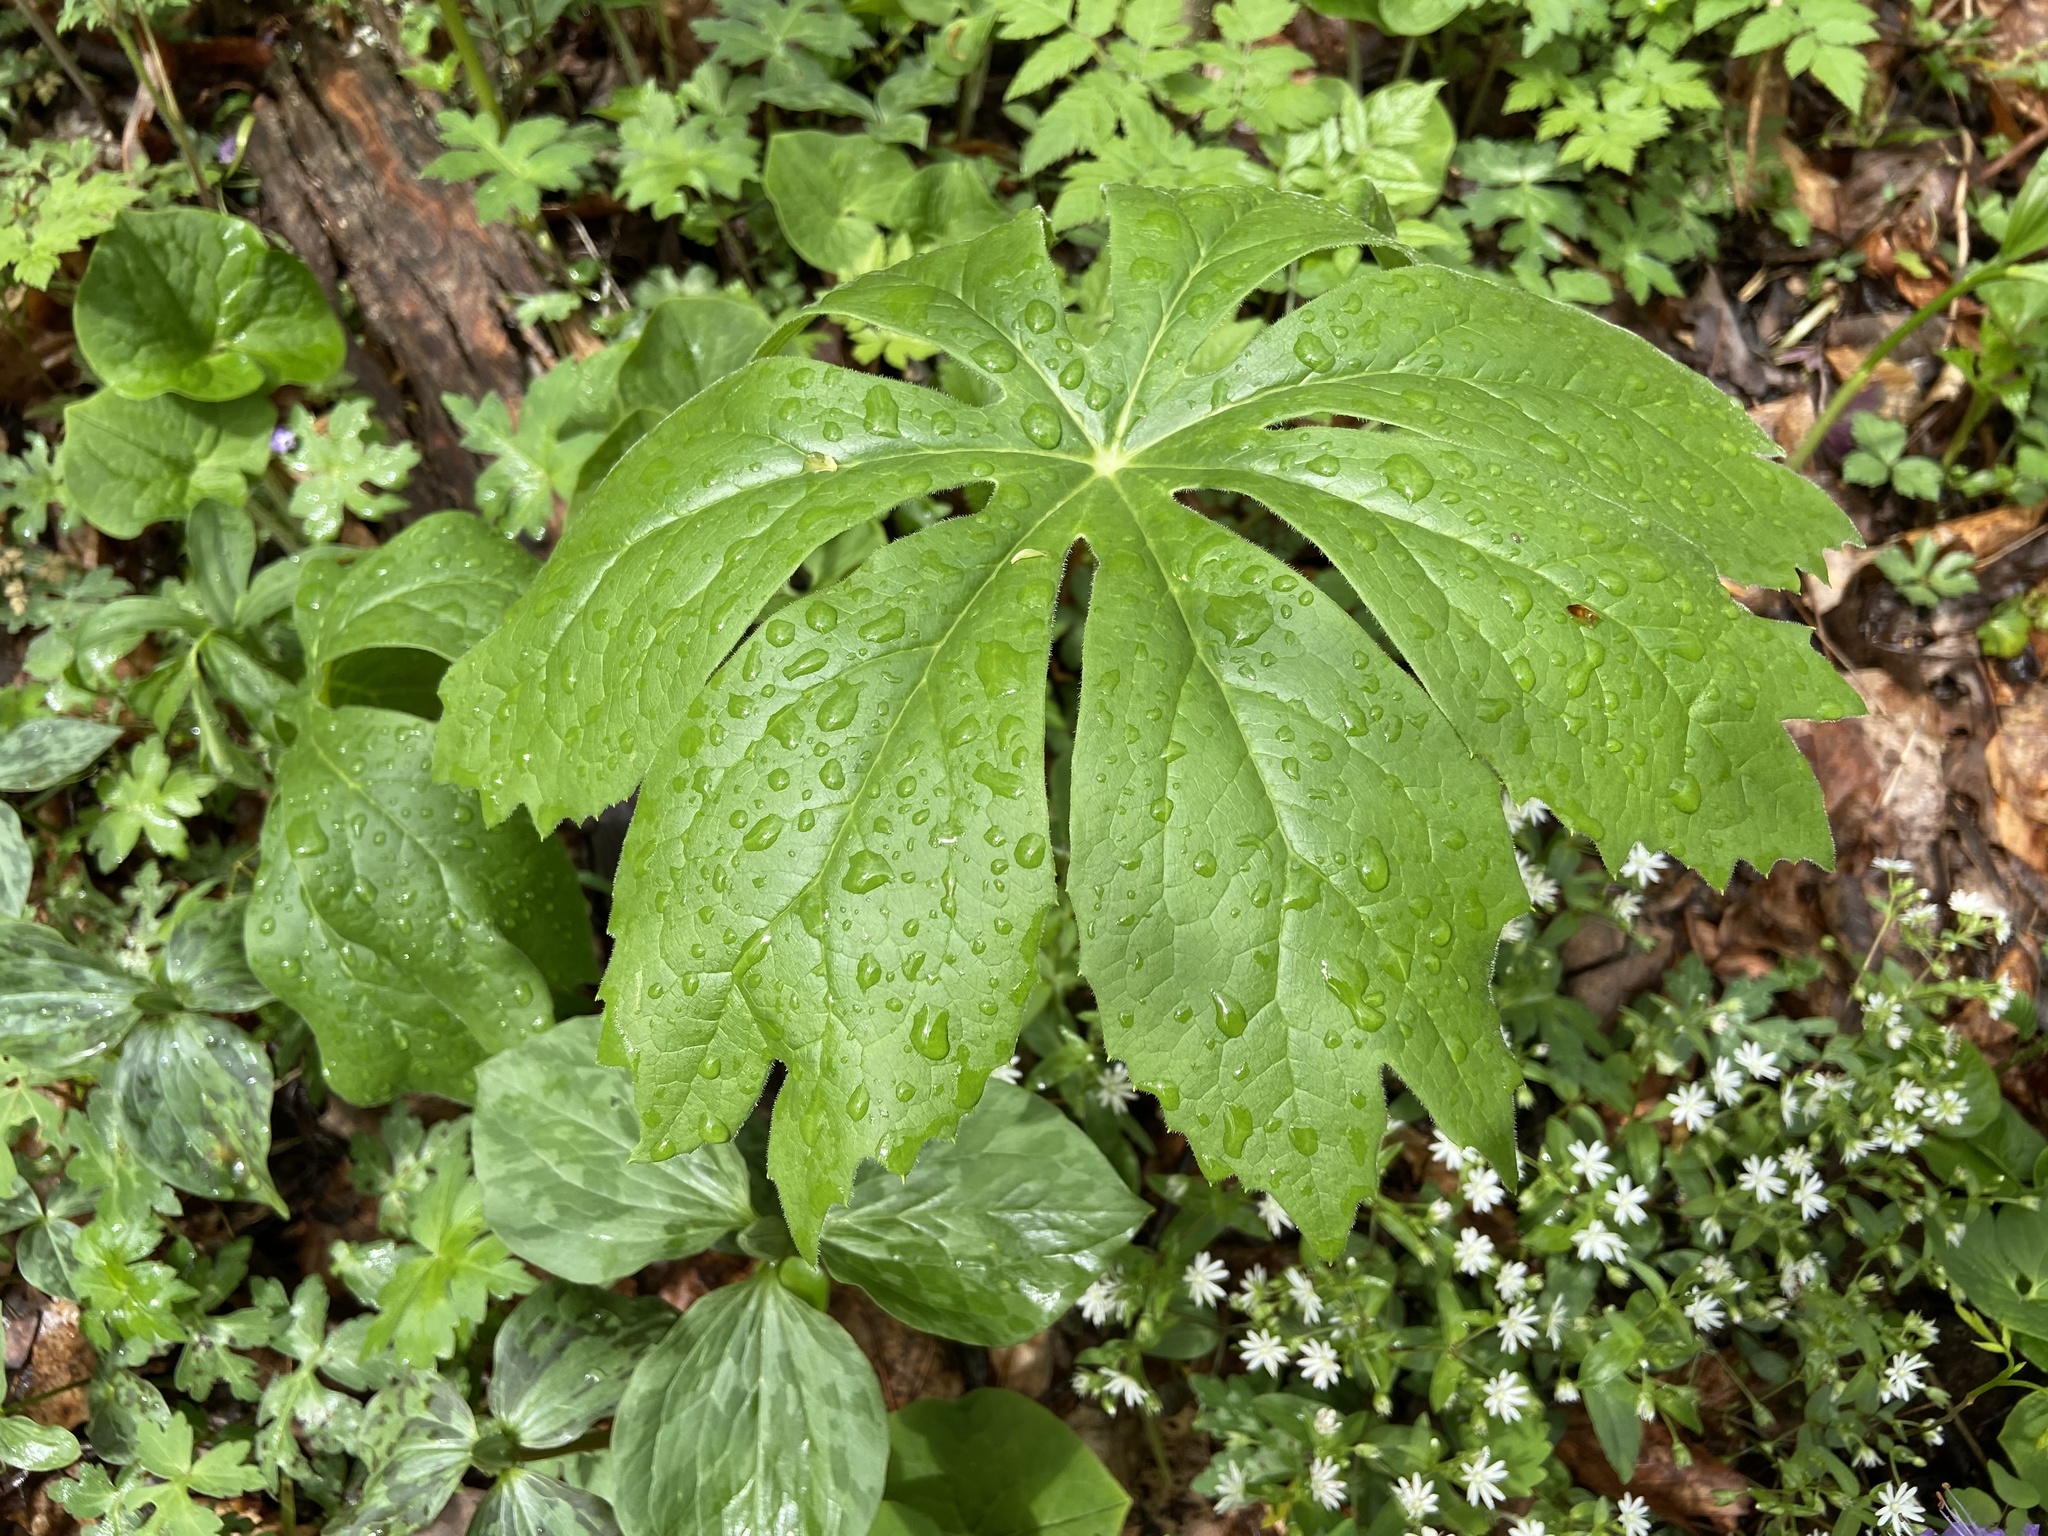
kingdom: Plantae
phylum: Tracheophyta
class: Magnoliopsida
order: Ranunculales
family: Berberidaceae
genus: Podophyllum
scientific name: Podophyllum peltatum
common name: Wild mandrake
